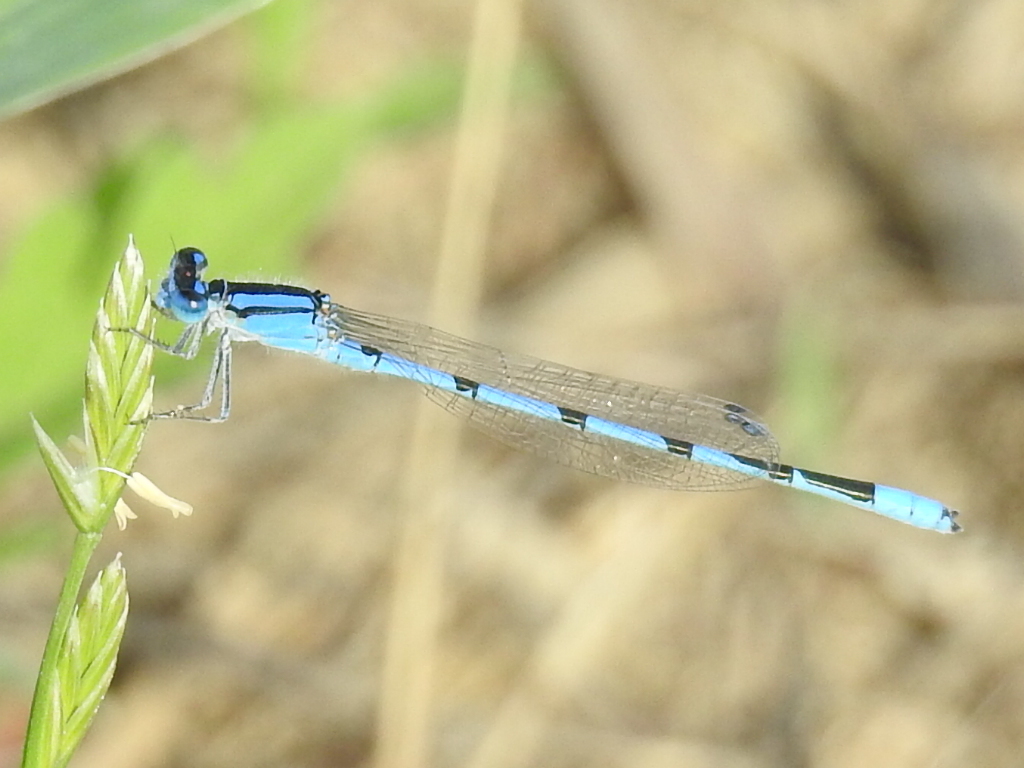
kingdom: Animalia
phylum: Arthropoda
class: Insecta
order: Odonata
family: Coenagrionidae
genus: Enallagma
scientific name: Enallagma civile
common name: Damselfly
